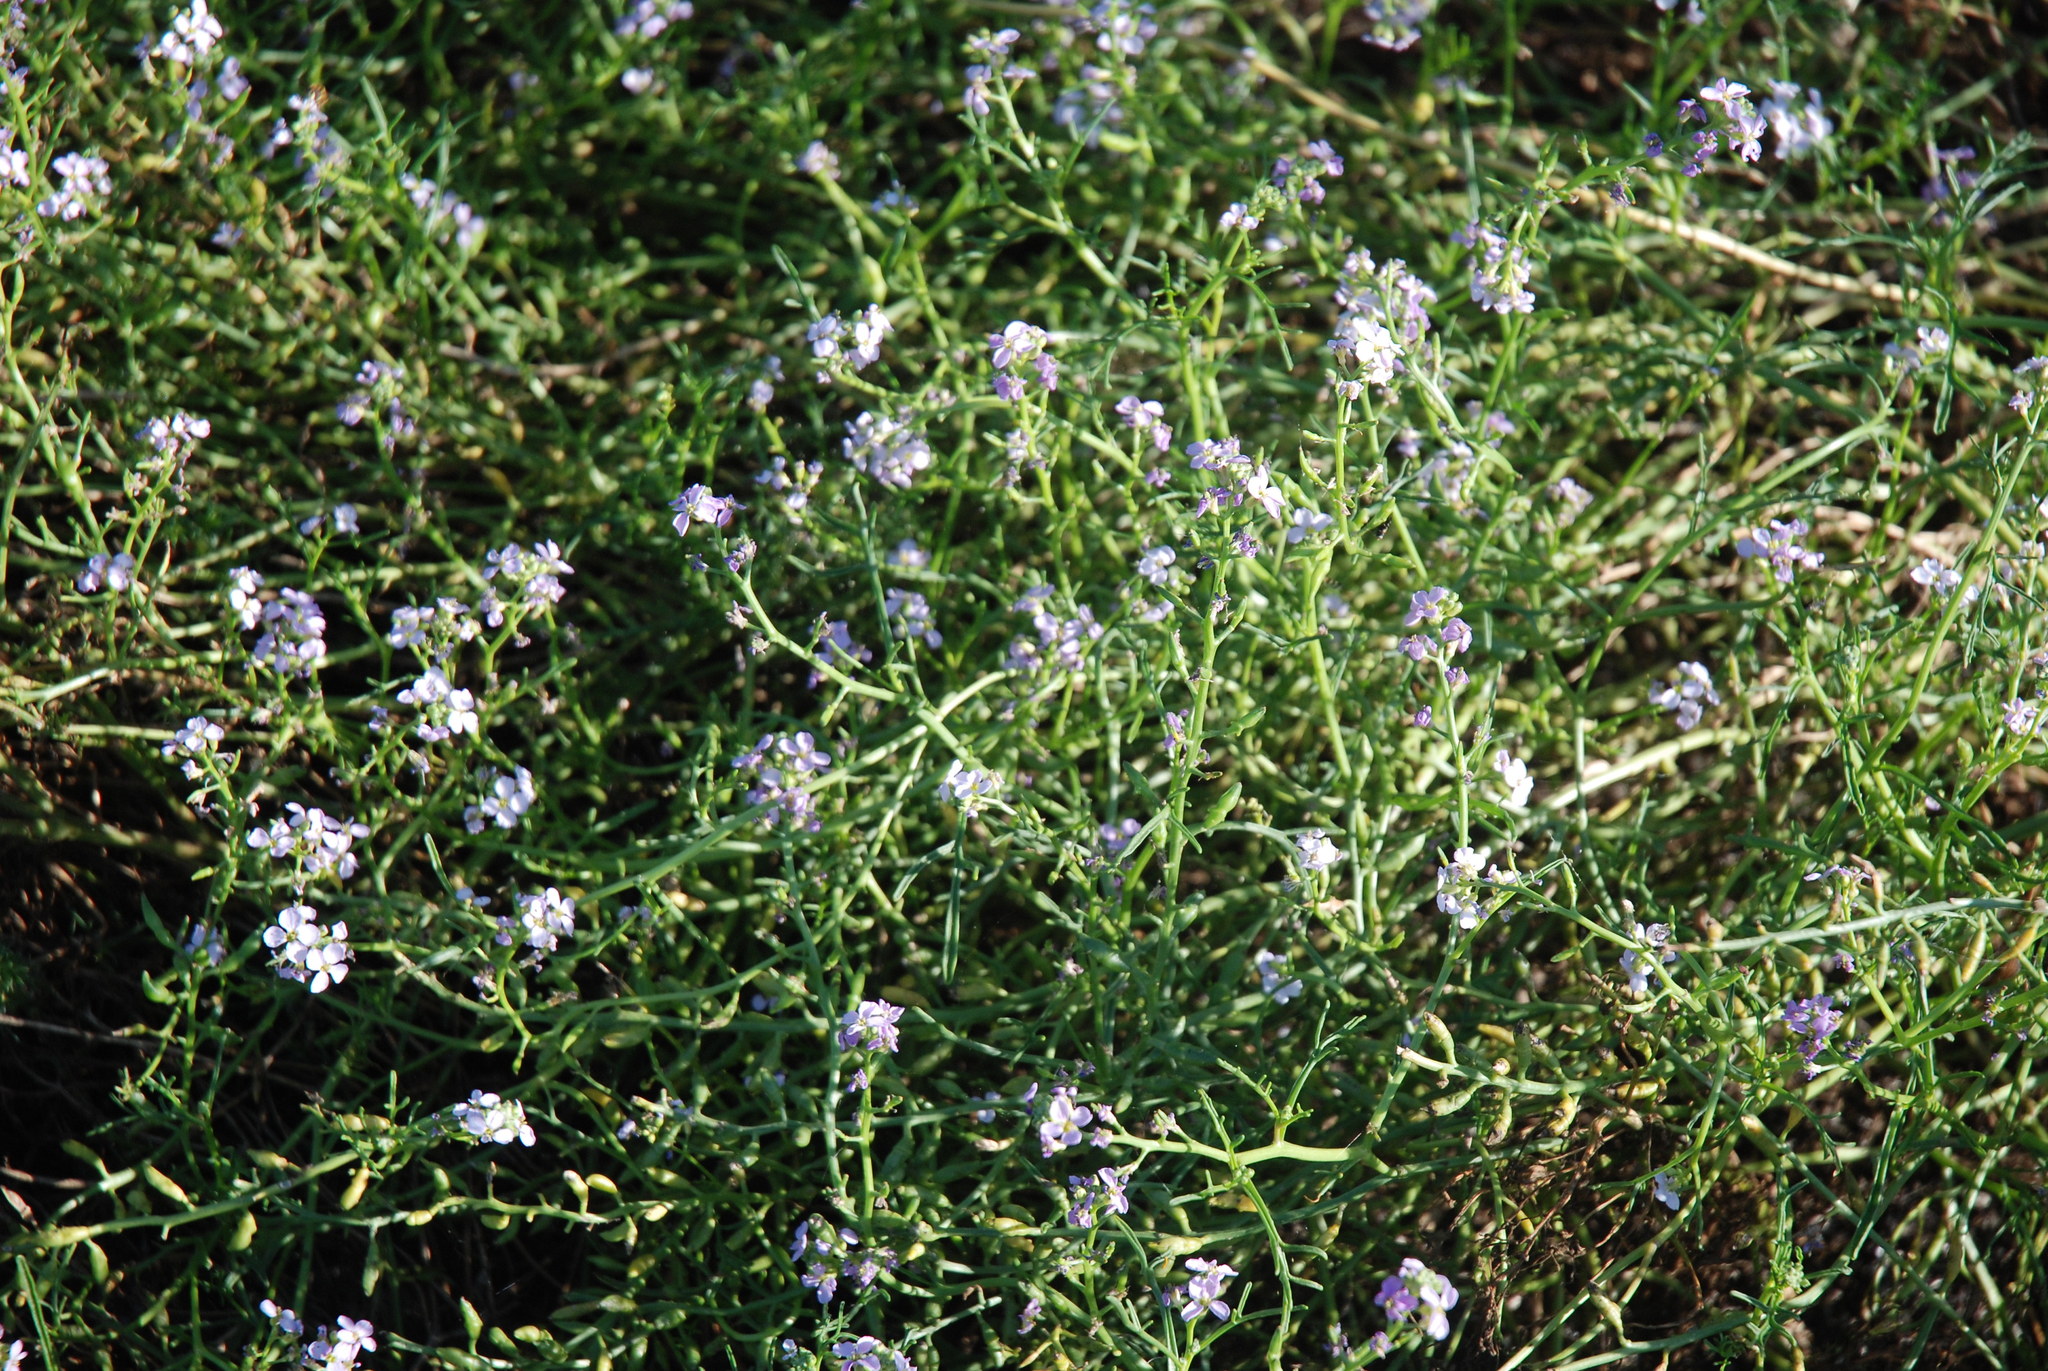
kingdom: Plantae
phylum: Tracheophyta
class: Magnoliopsida
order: Brassicales
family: Brassicaceae
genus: Cakile
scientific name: Cakile maritima
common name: Sea rocket
